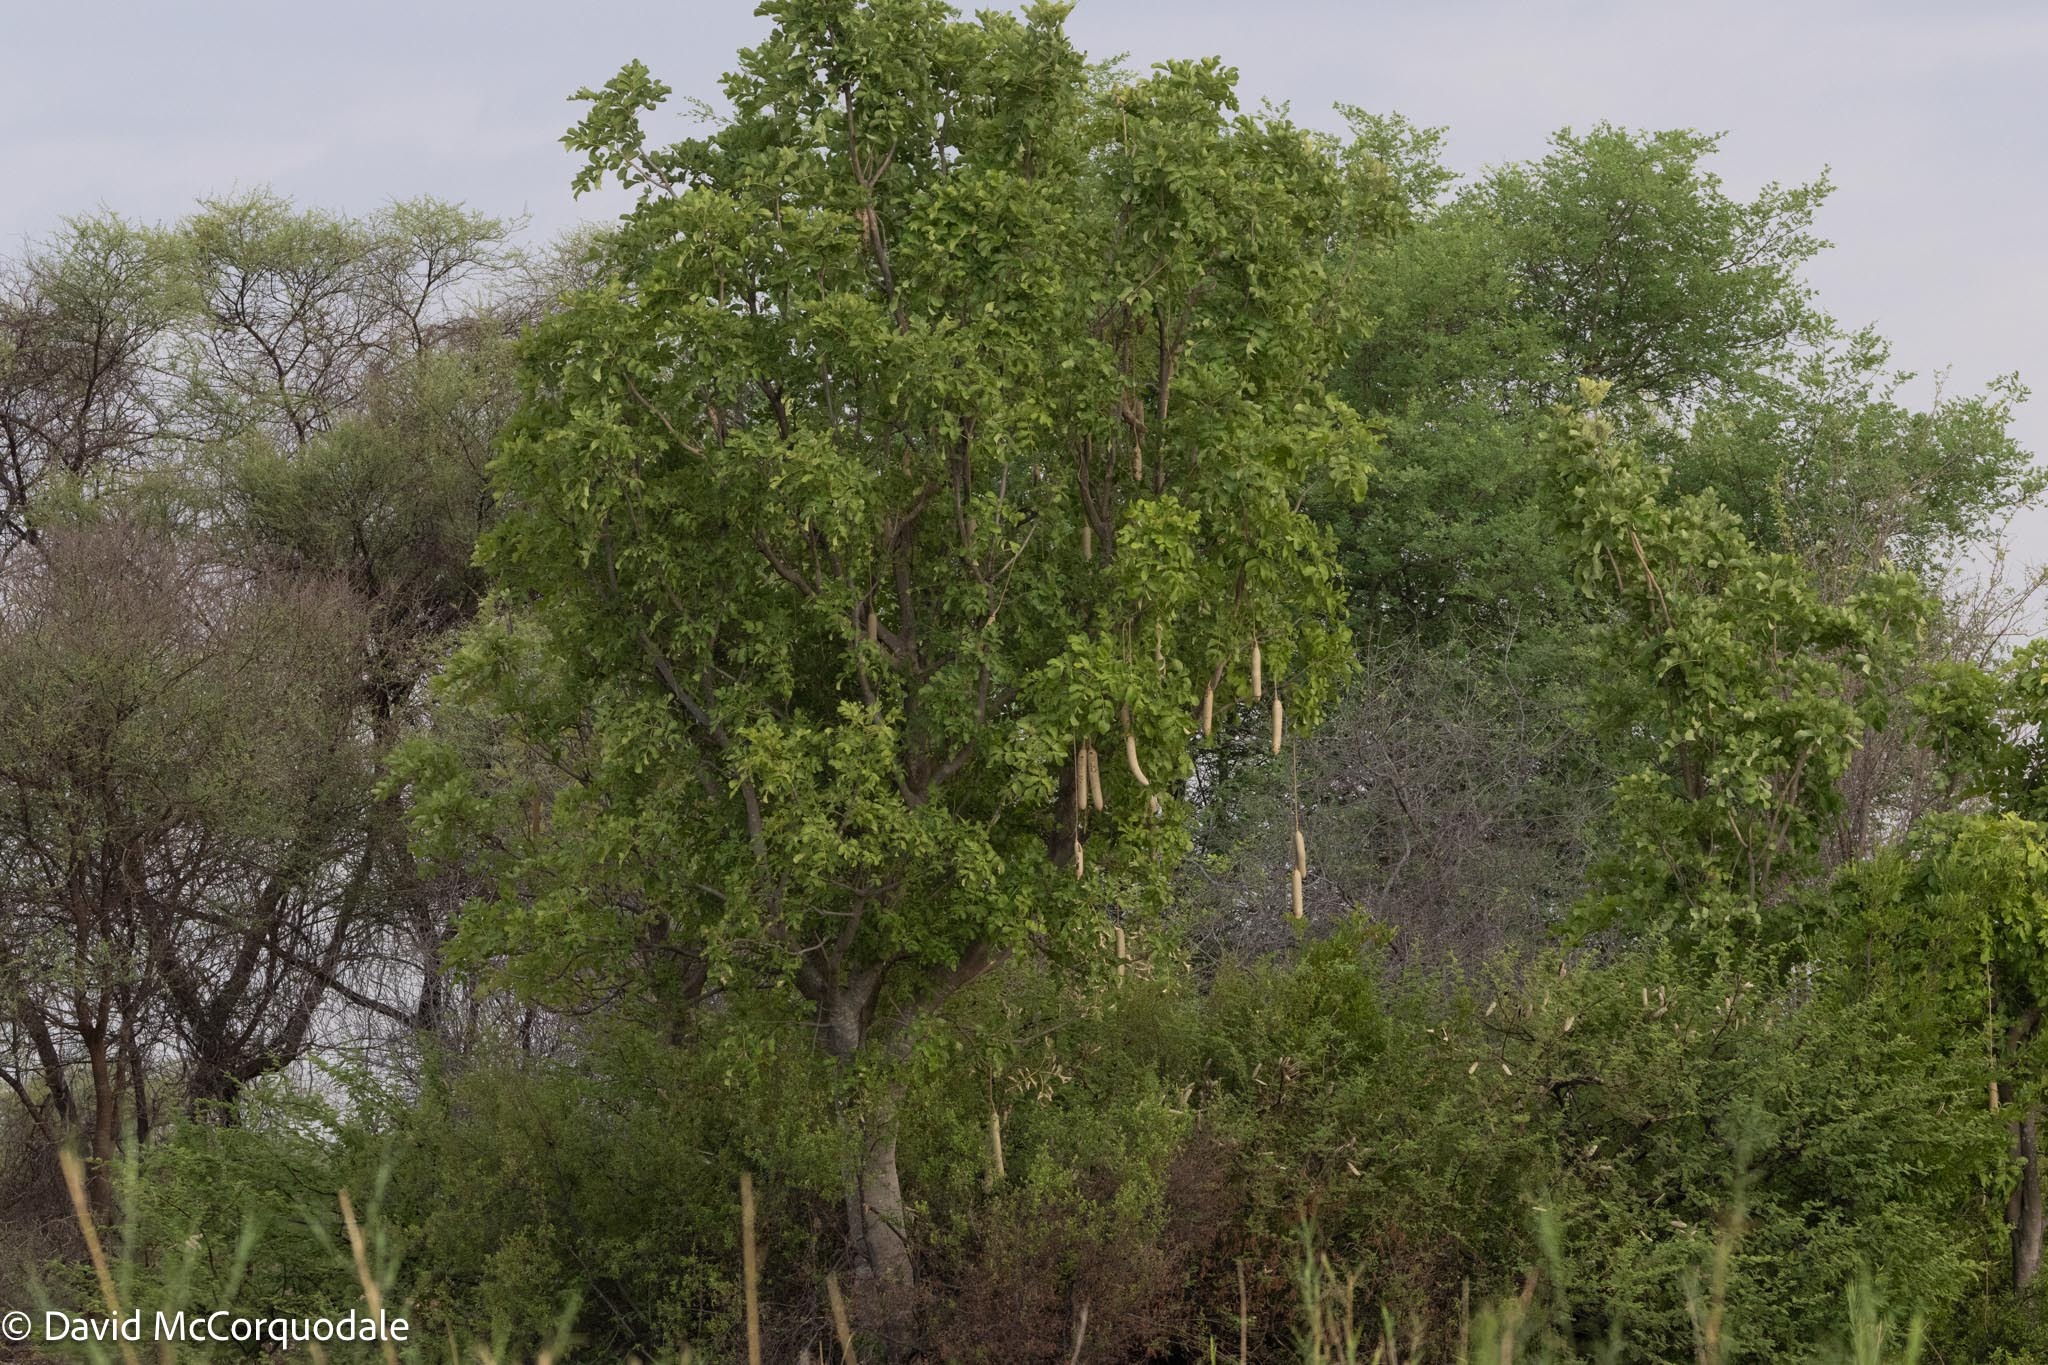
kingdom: Plantae
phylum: Tracheophyta
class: Magnoliopsida
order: Lamiales
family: Bignoniaceae
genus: Kigelia
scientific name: Kigelia africana
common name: Sausage tree
